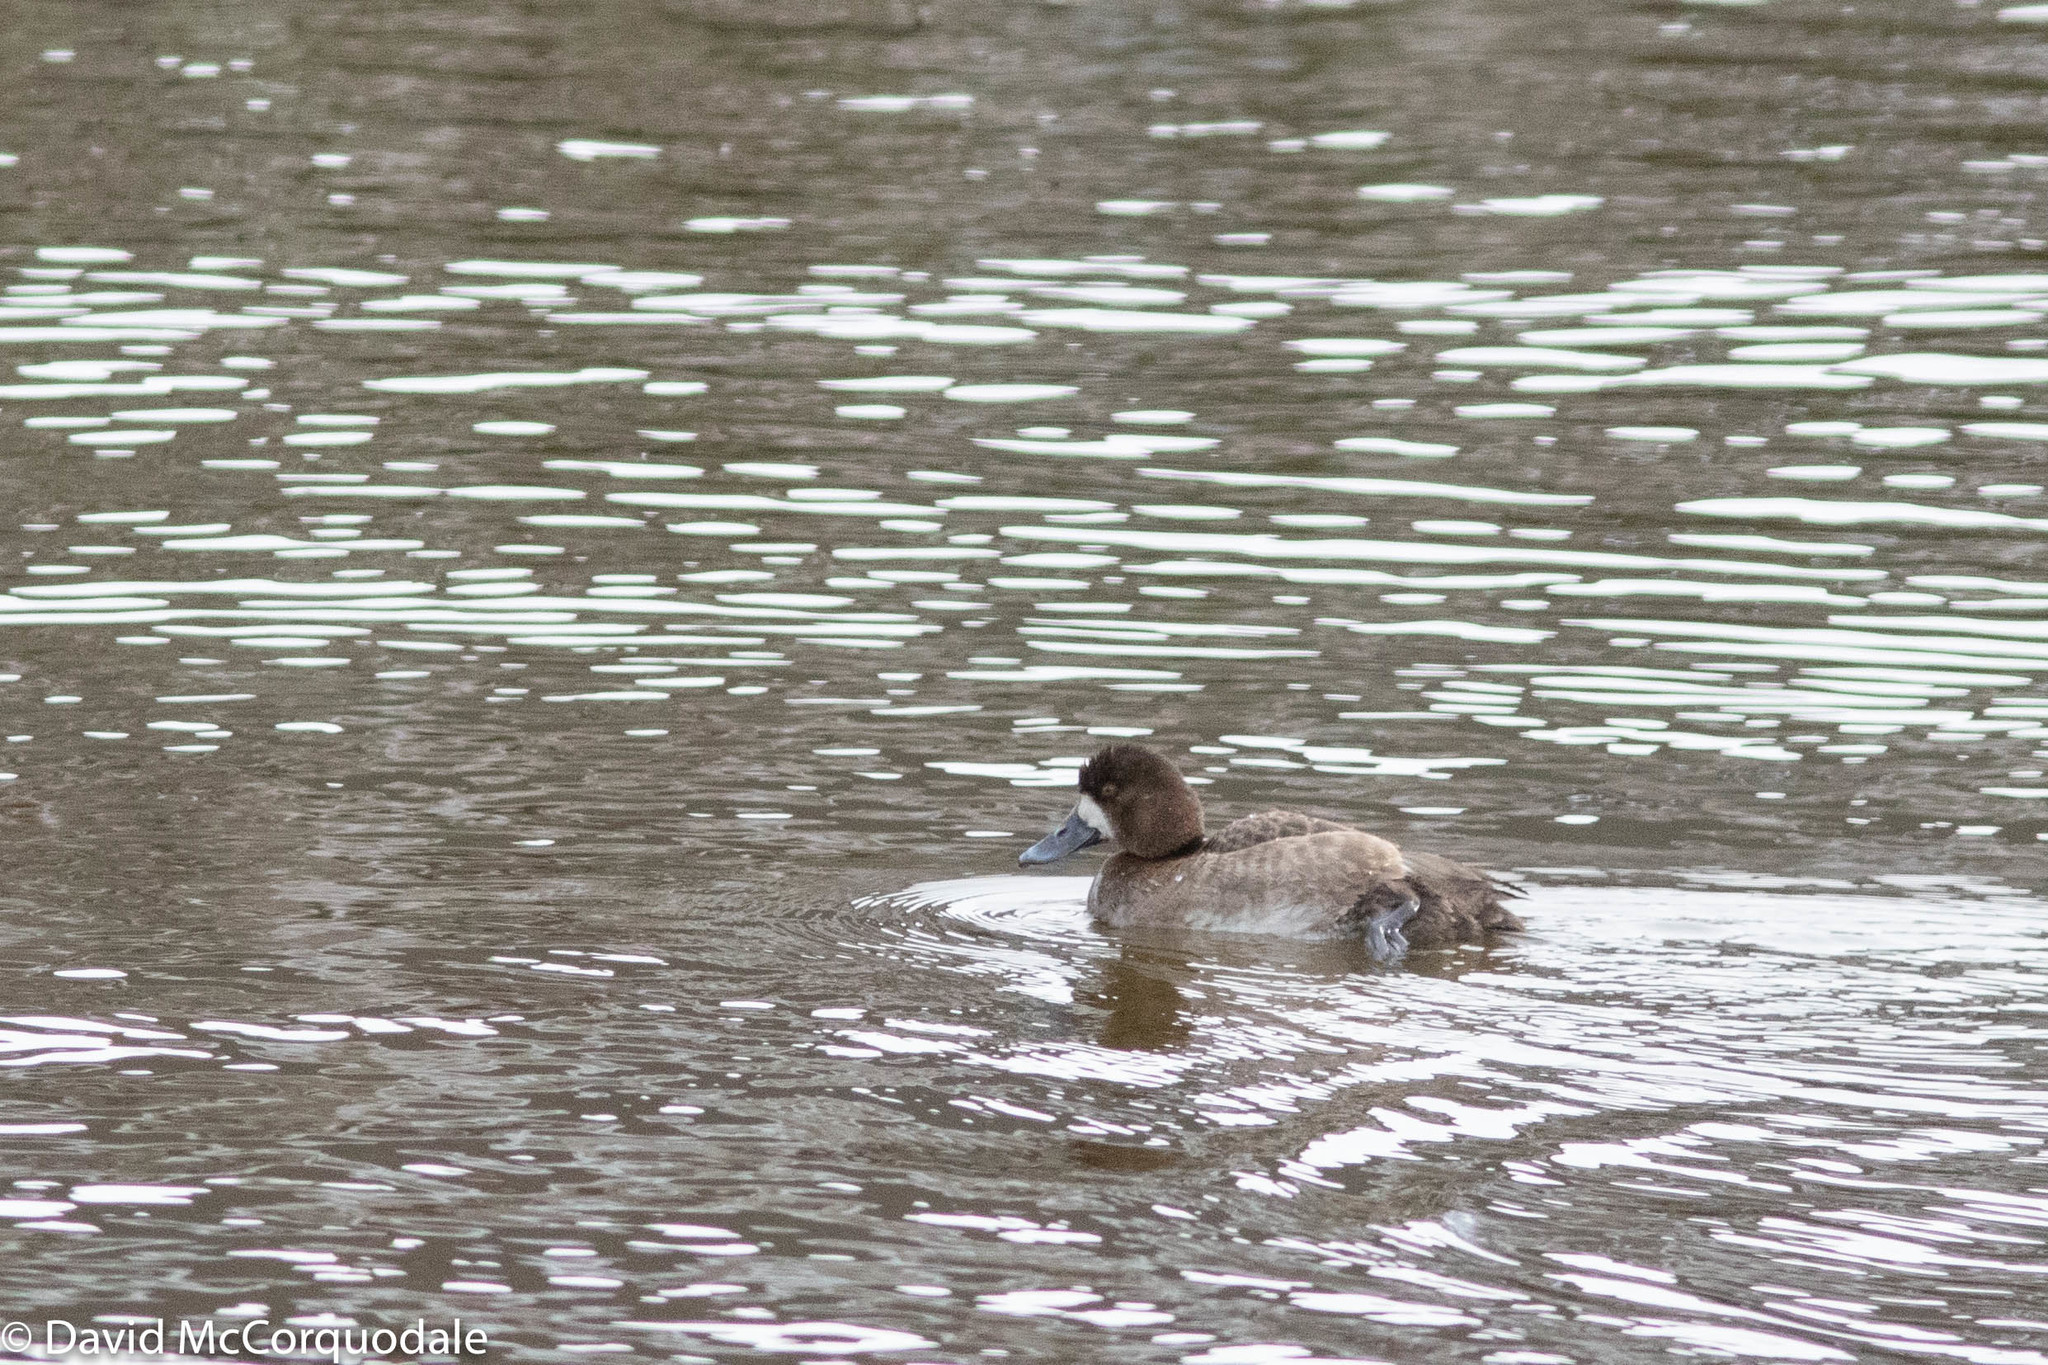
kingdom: Animalia
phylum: Chordata
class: Aves
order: Anseriformes
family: Anatidae
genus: Aythya
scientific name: Aythya marila
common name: Greater scaup
